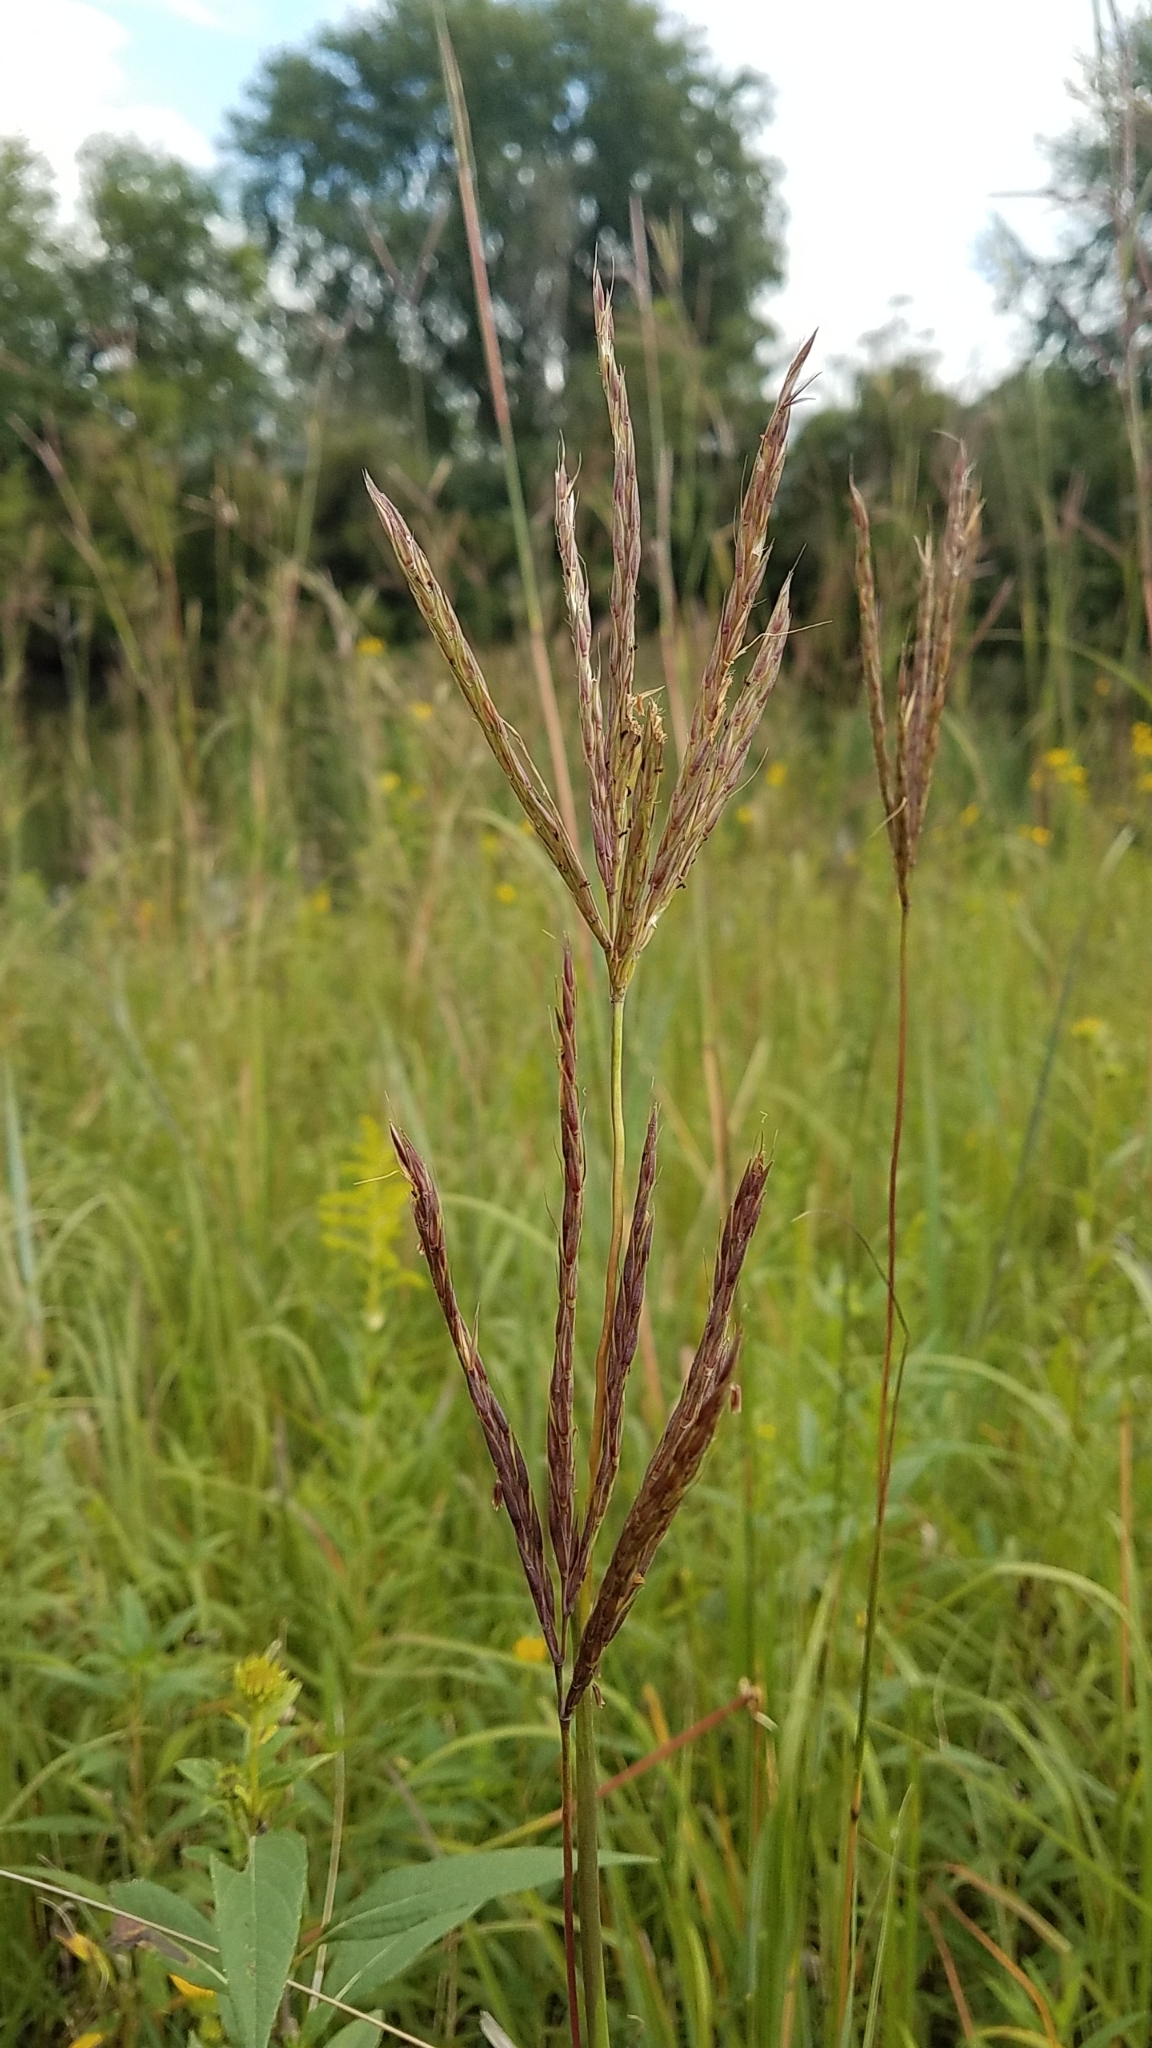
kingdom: Plantae
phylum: Tracheophyta
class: Liliopsida
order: Poales
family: Poaceae
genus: Andropogon
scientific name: Andropogon gerardi
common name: Big bluestem
